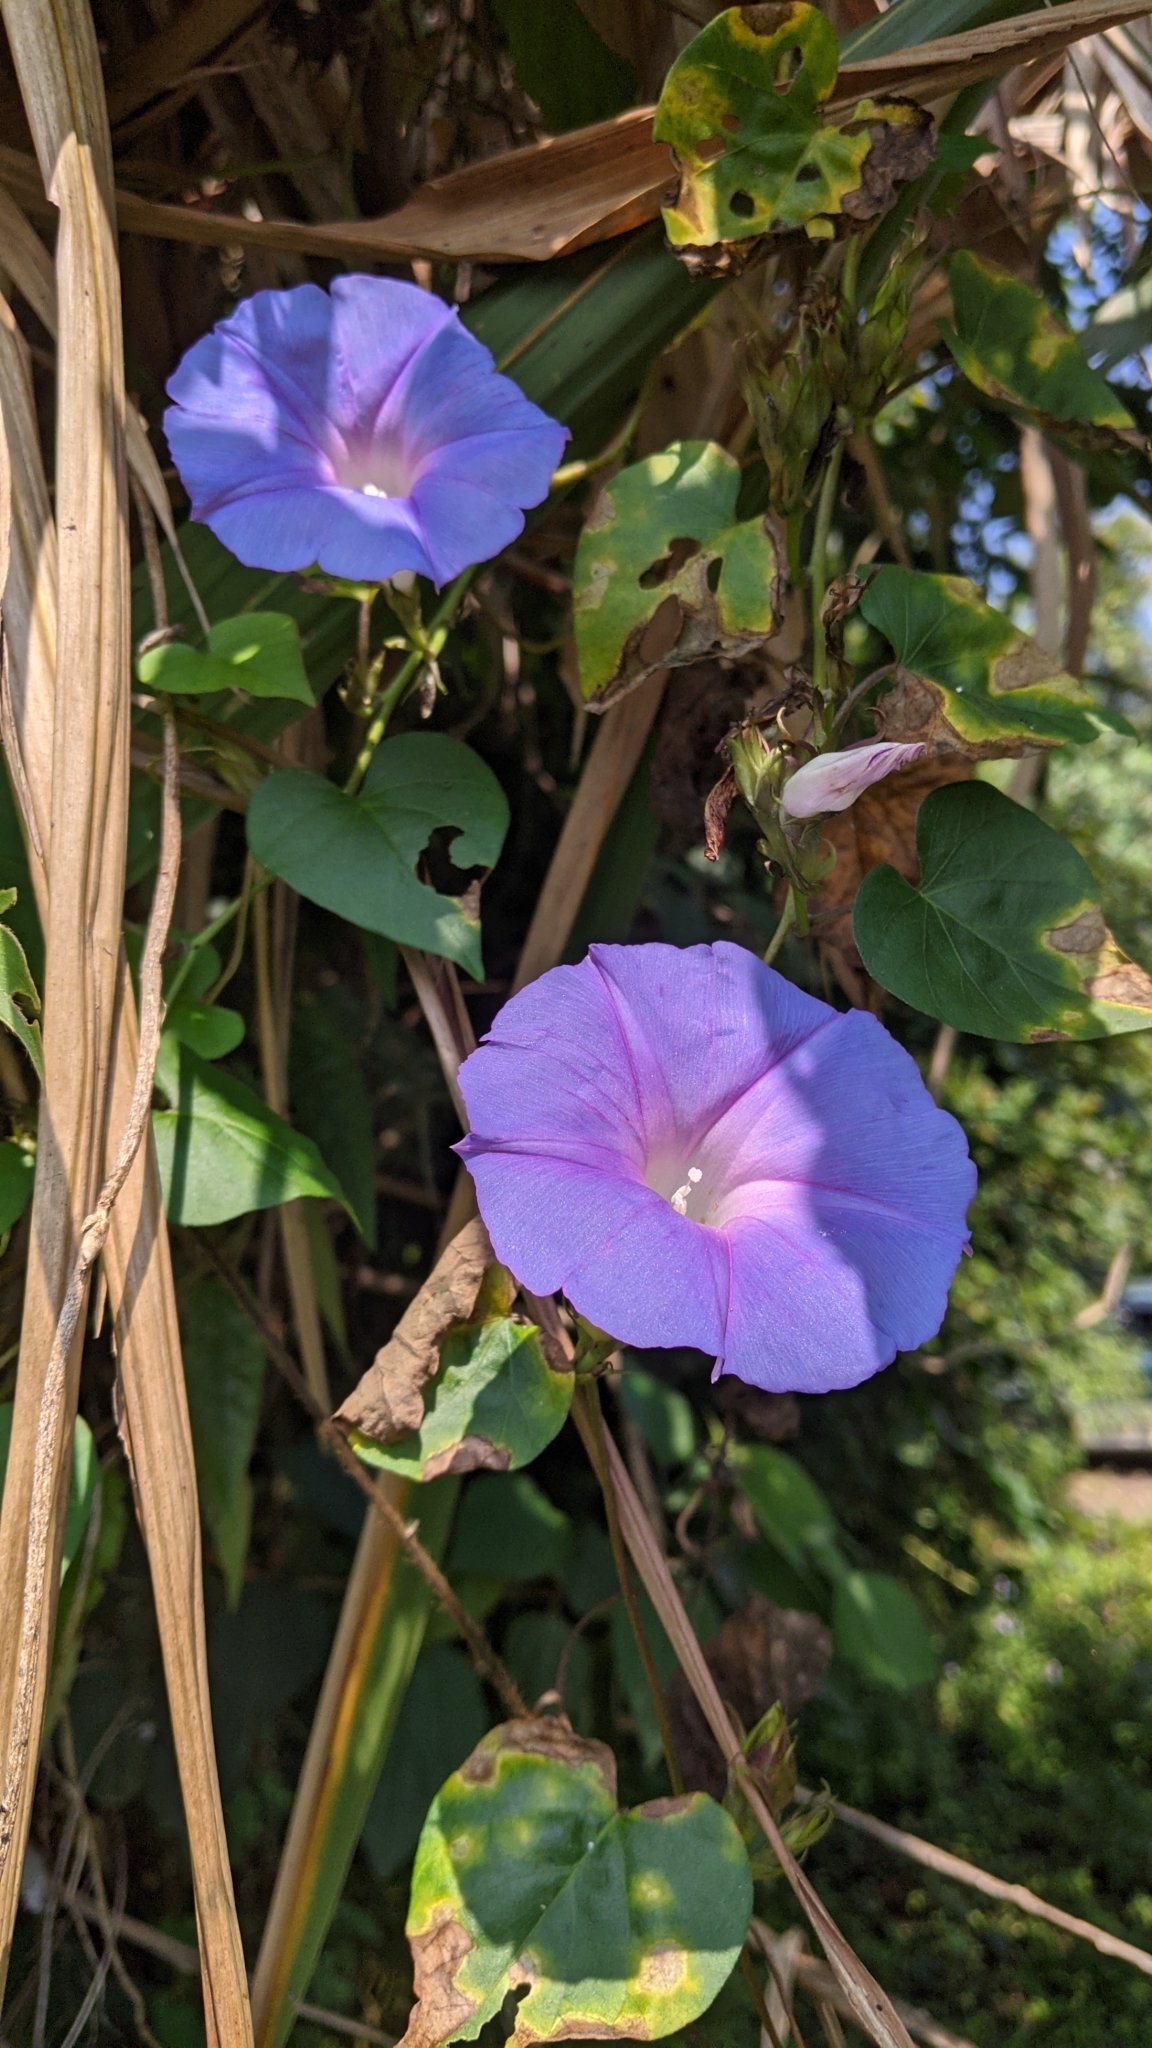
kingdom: Plantae
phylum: Tracheophyta
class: Magnoliopsida
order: Solanales
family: Convolvulaceae
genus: Ipomoea
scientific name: Ipomoea indica
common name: Blue dawnflower
